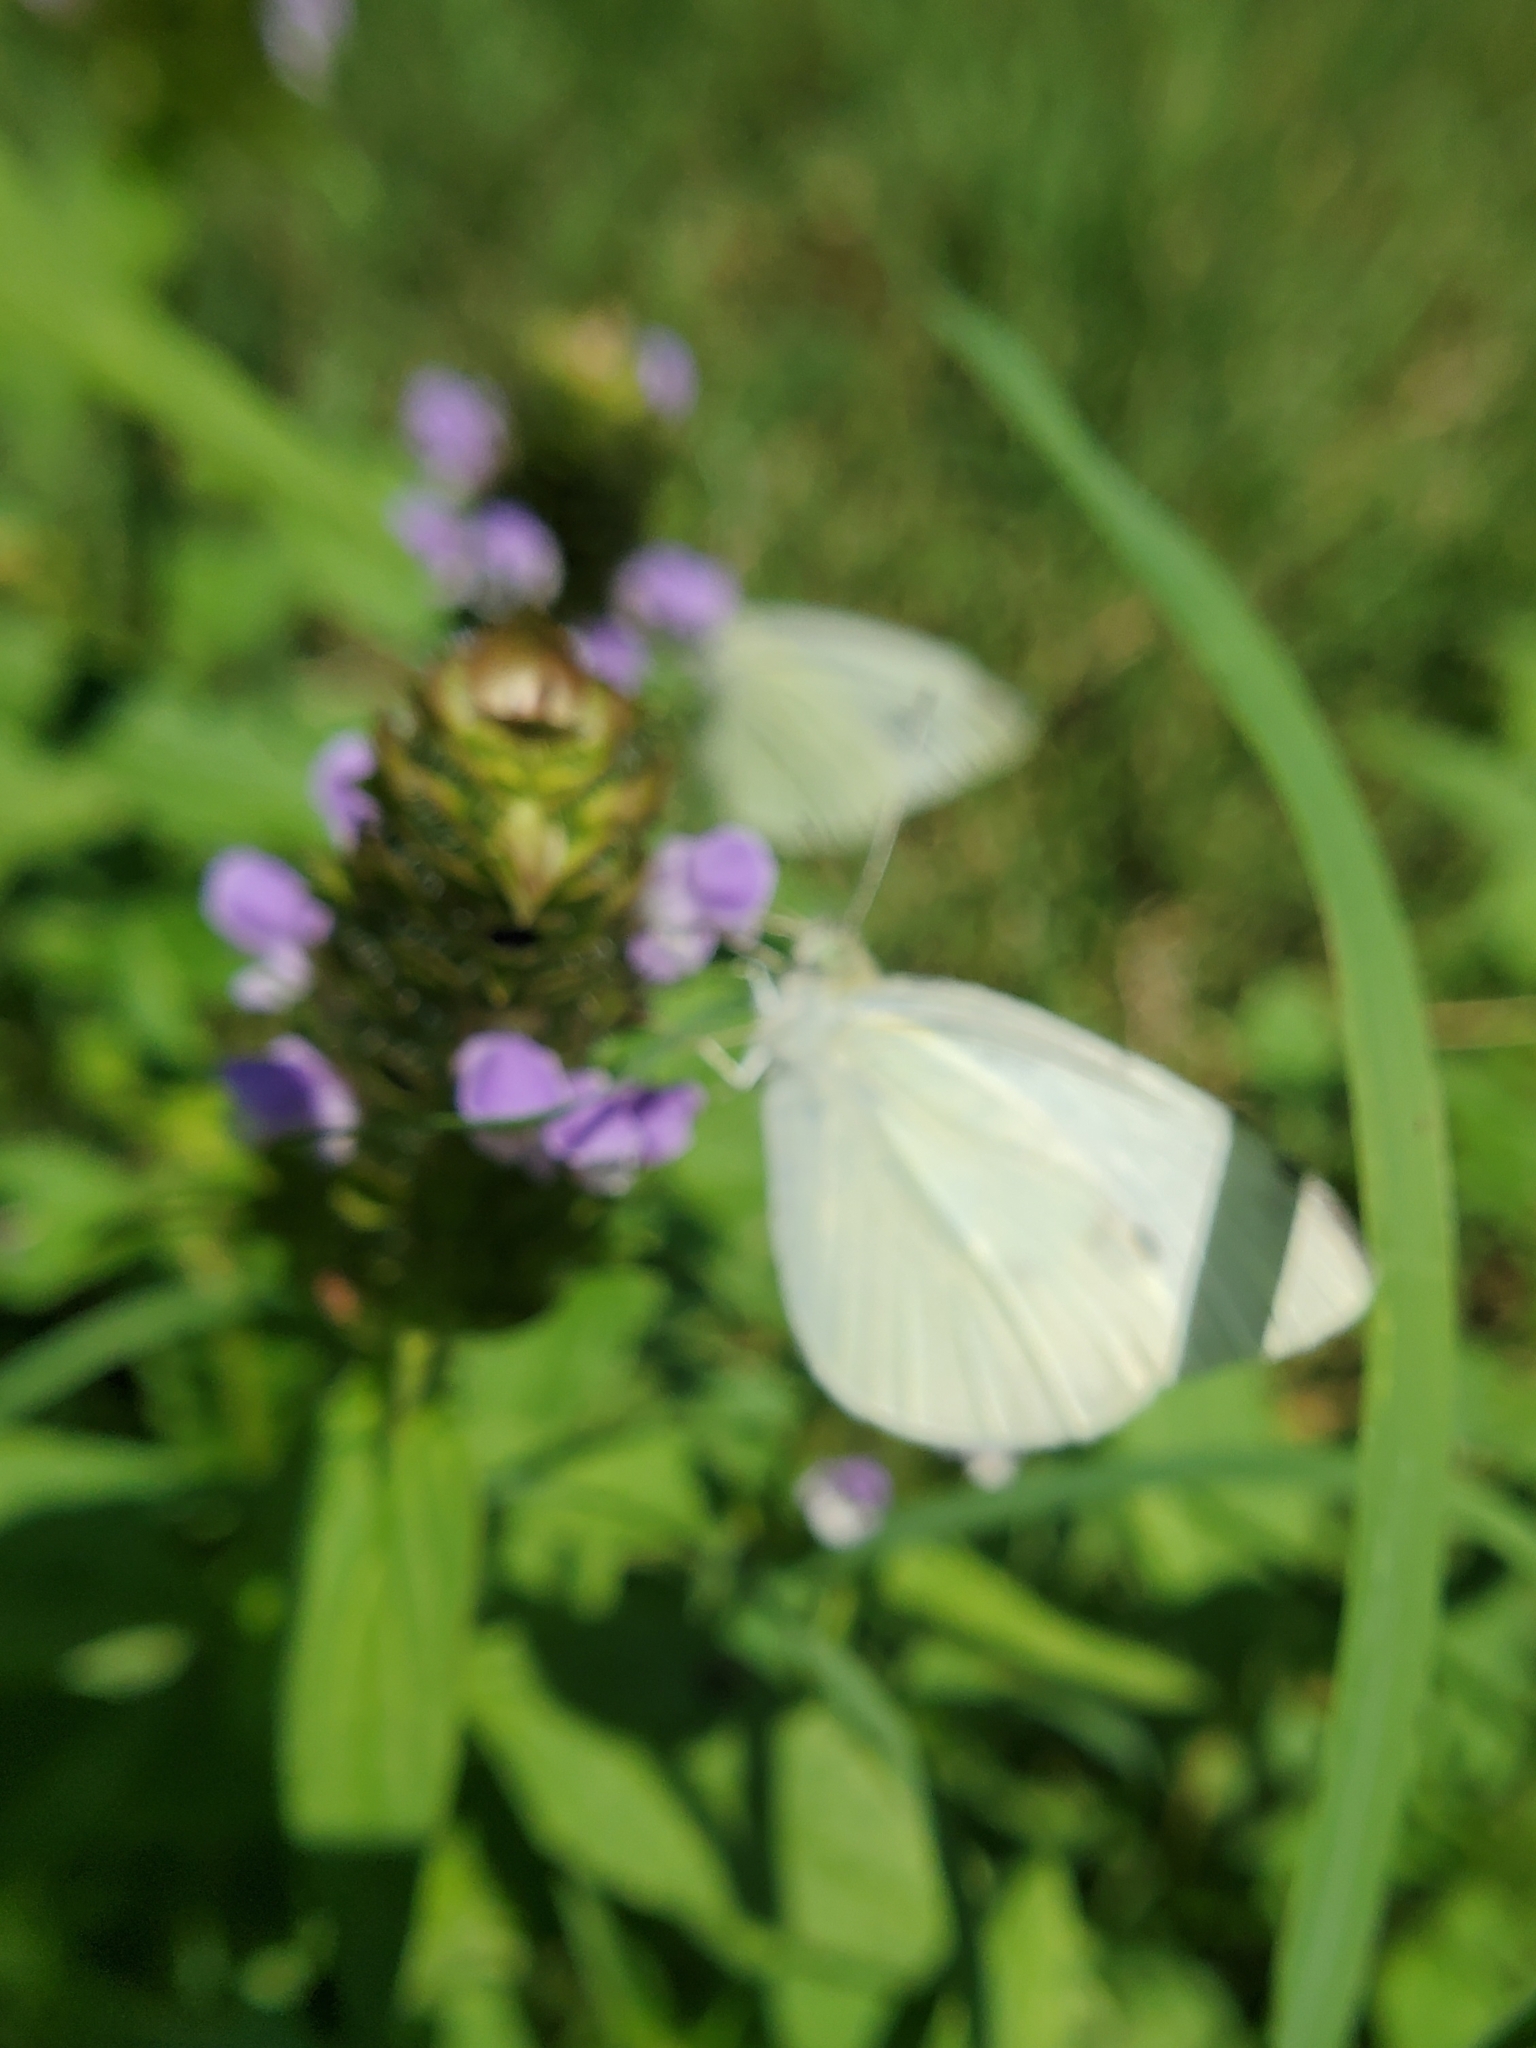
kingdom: Animalia
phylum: Arthropoda
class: Insecta
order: Lepidoptera
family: Pieridae
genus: Pieris
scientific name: Pieris rapae
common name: Small white
